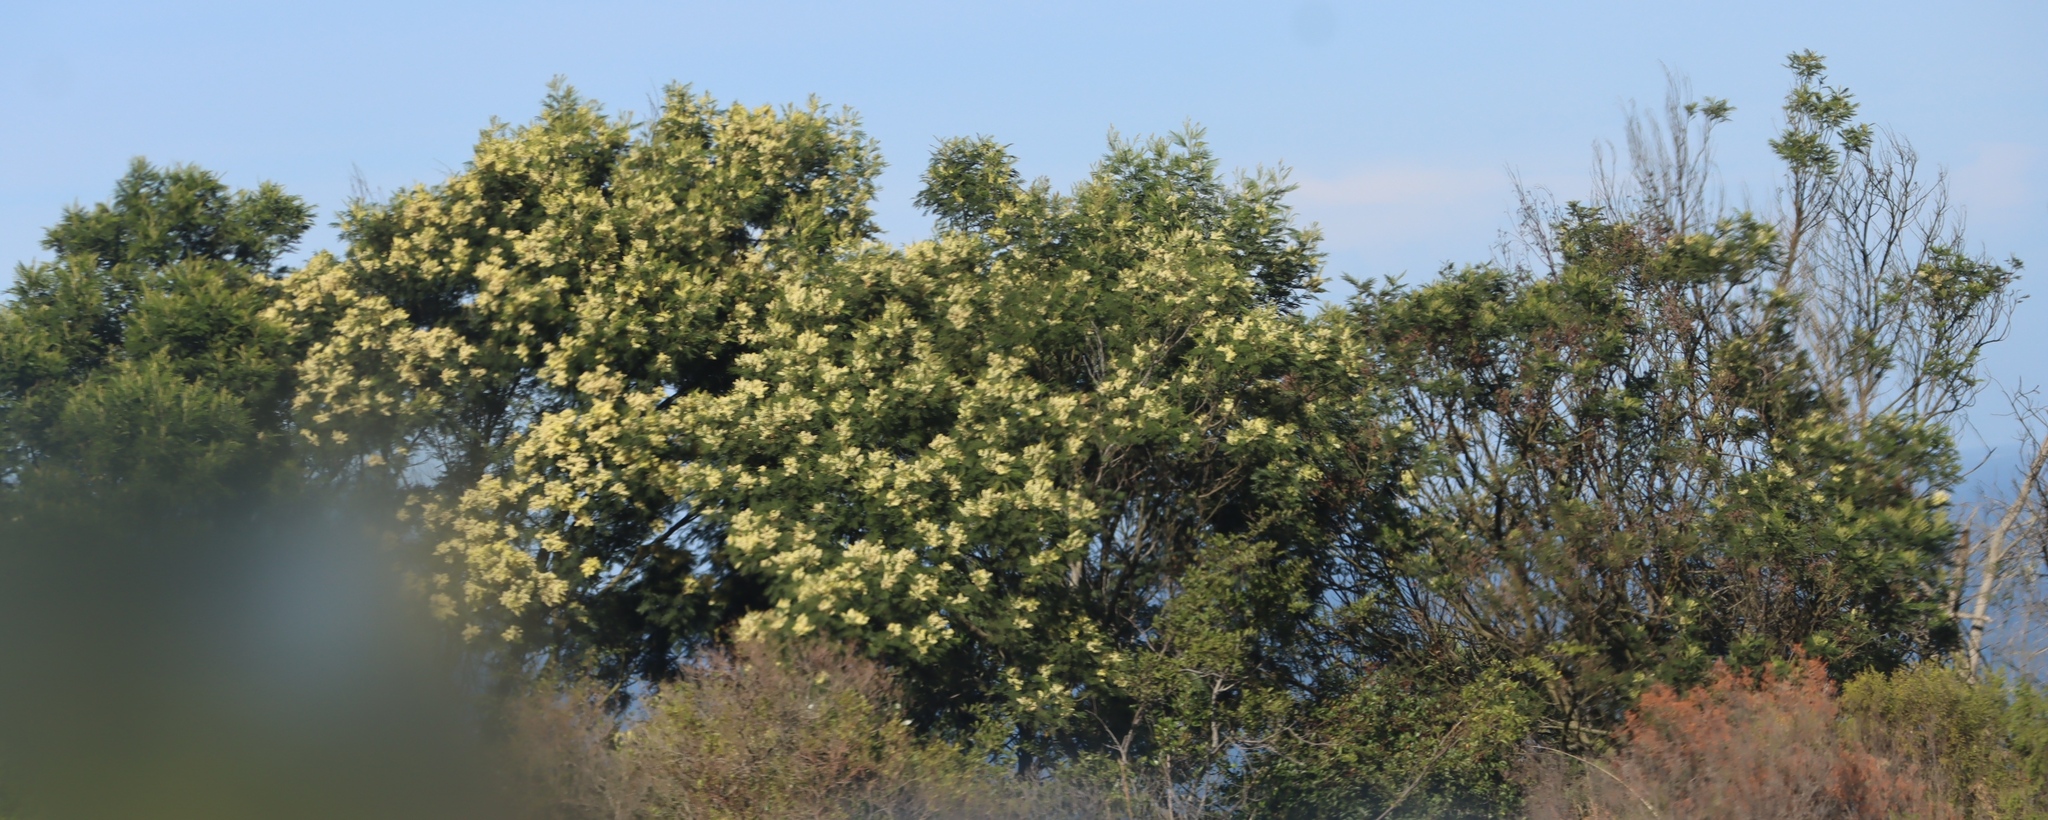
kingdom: Plantae
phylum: Tracheophyta
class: Magnoliopsida
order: Fabales
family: Fabaceae
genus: Acacia
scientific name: Acacia mearnsii
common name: Black wattle
